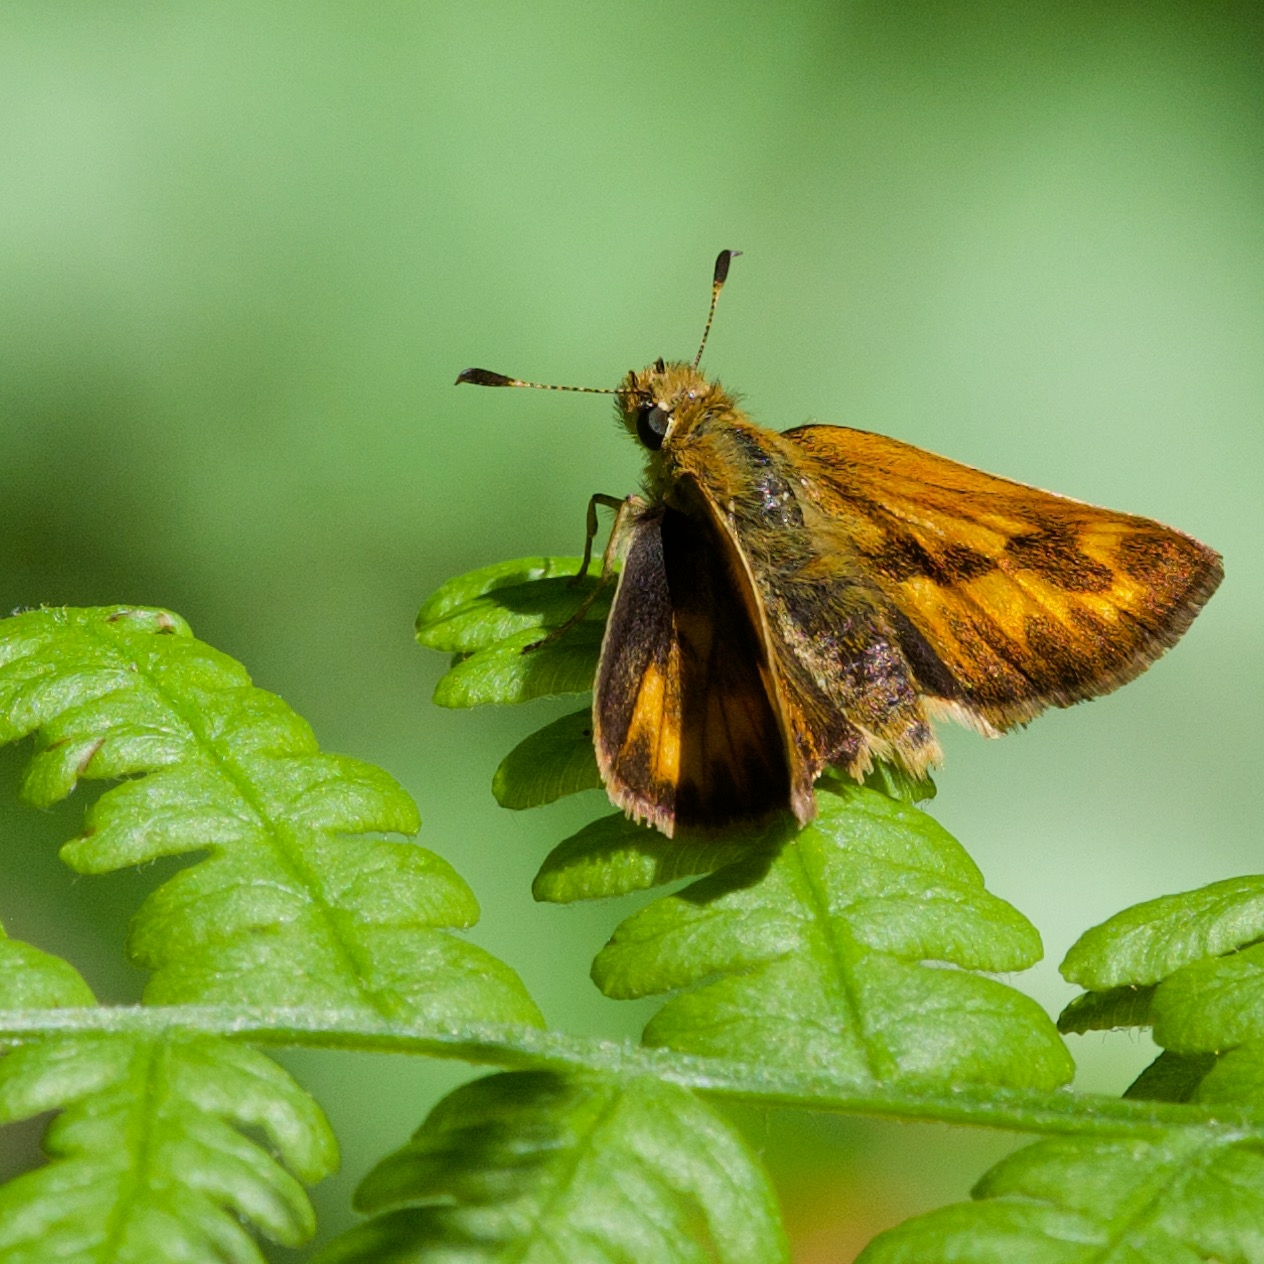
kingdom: Animalia
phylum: Arthropoda
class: Insecta
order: Lepidoptera
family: Hesperiidae
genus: Ochlodes
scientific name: Ochlodes sylvanoides
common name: Woodland skipper
